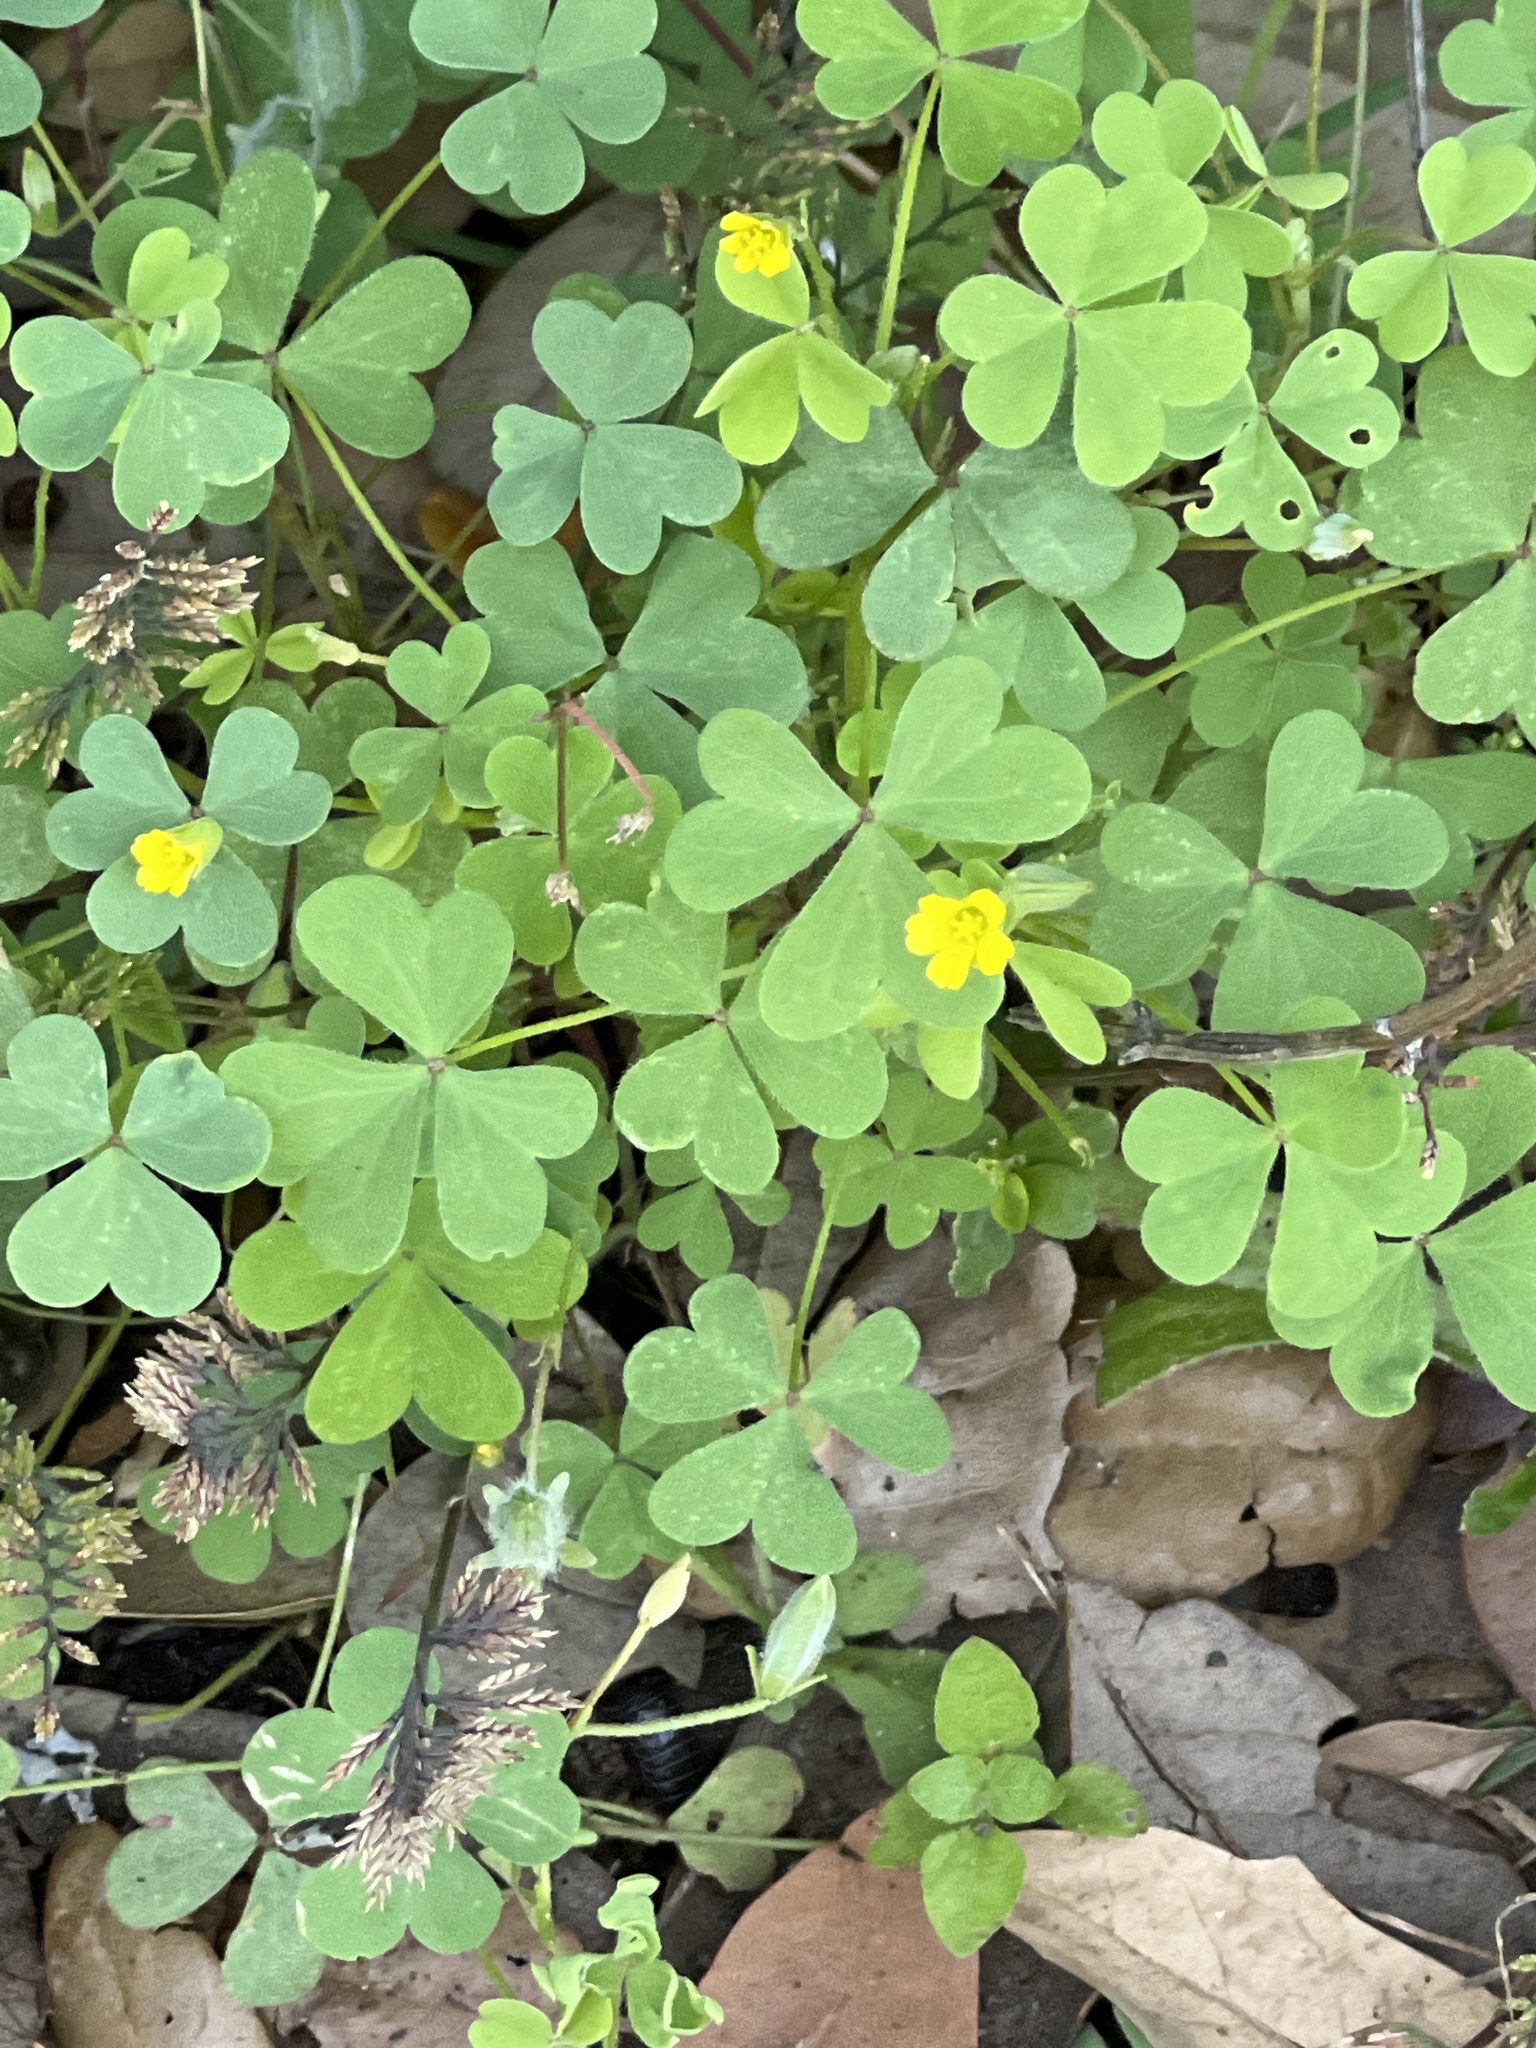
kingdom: Plantae
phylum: Tracheophyta
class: Magnoliopsida
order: Oxalidales
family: Oxalidaceae
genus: Oxalis
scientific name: Oxalis dillenii
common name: Sussex yellow-sorrel
